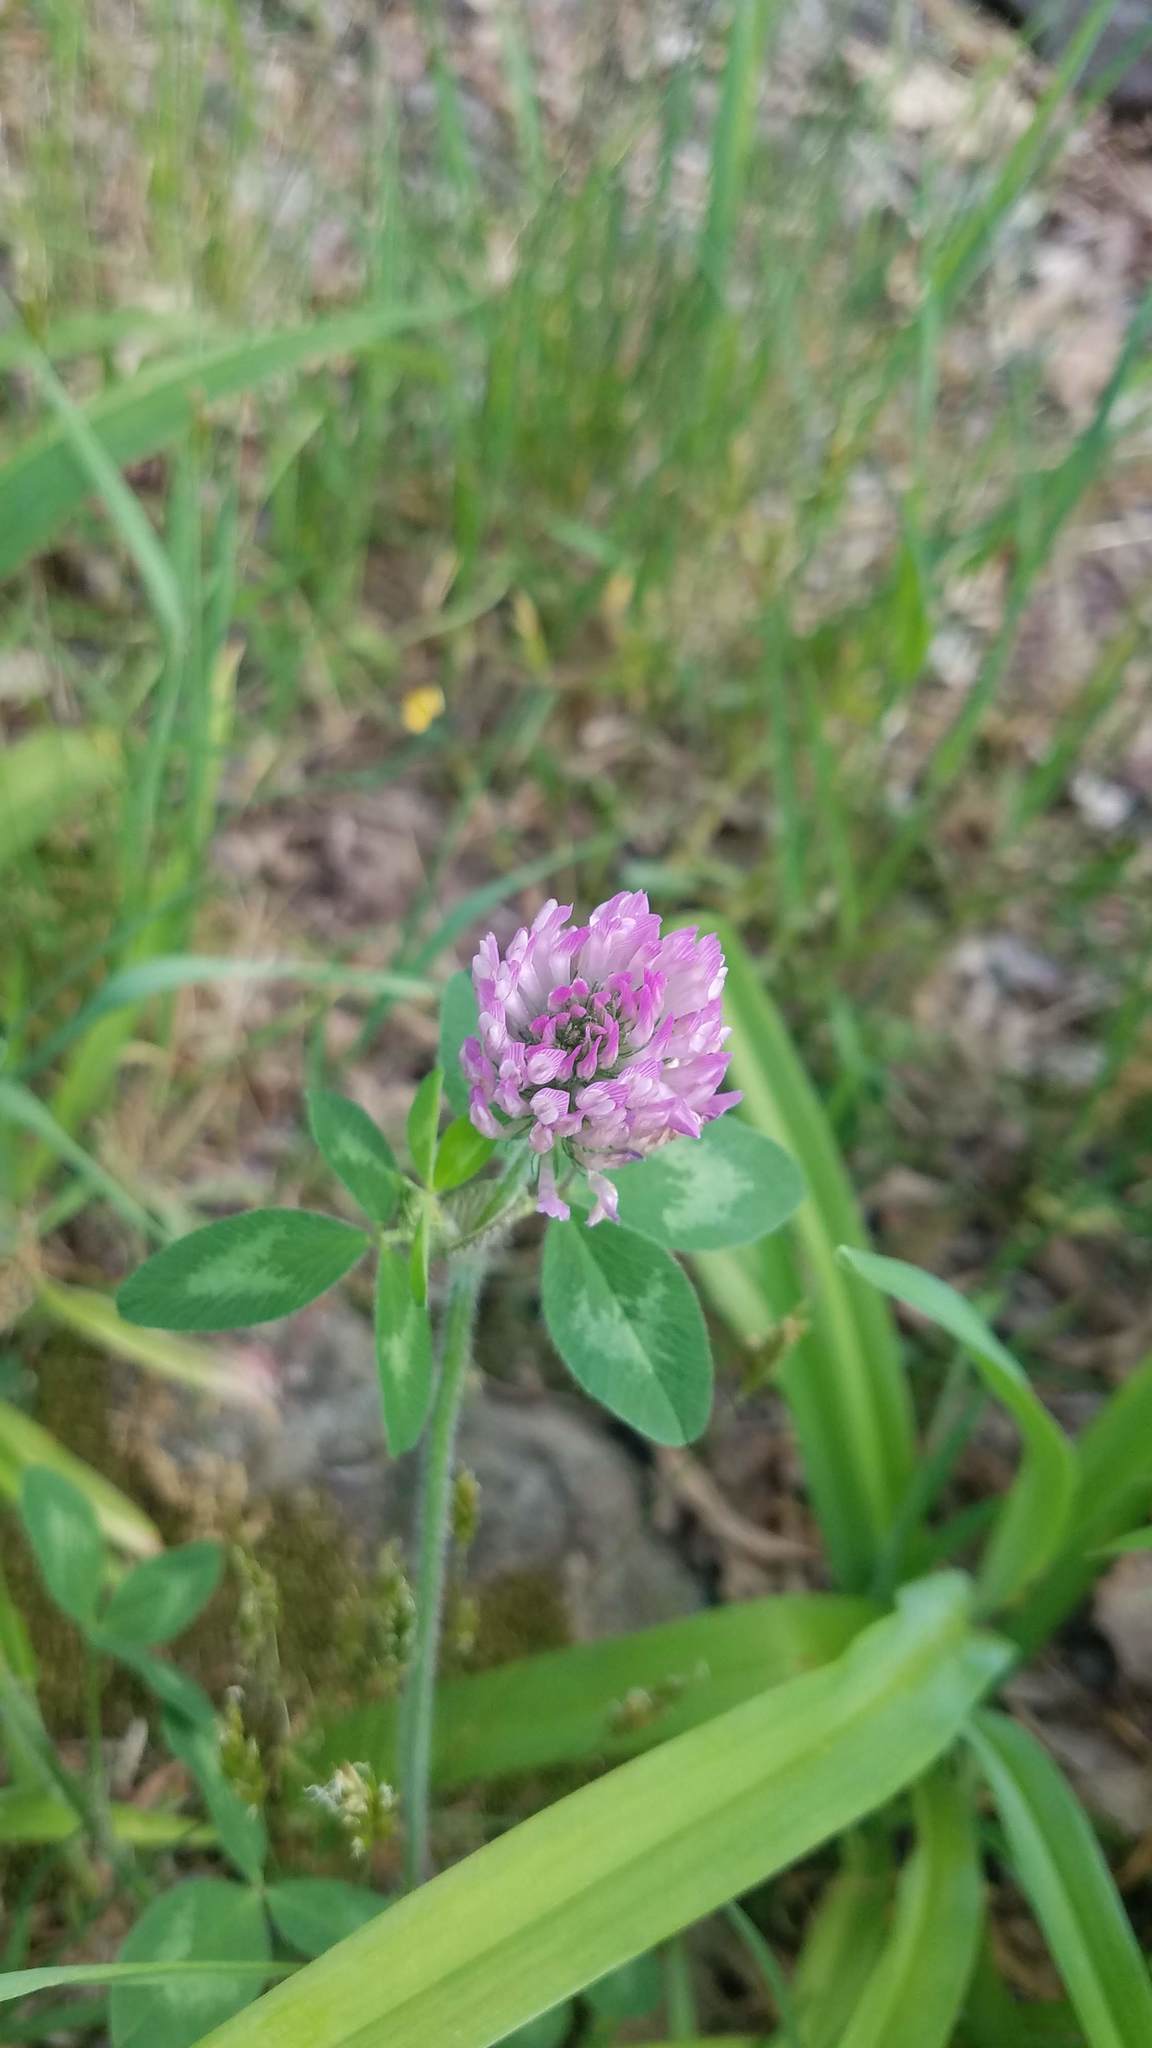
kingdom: Plantae
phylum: Tracheophyta
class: Magnoliopsida
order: Fabales
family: Fabaceae
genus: Trifolium
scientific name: Trifolium pratense
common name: Red clover
